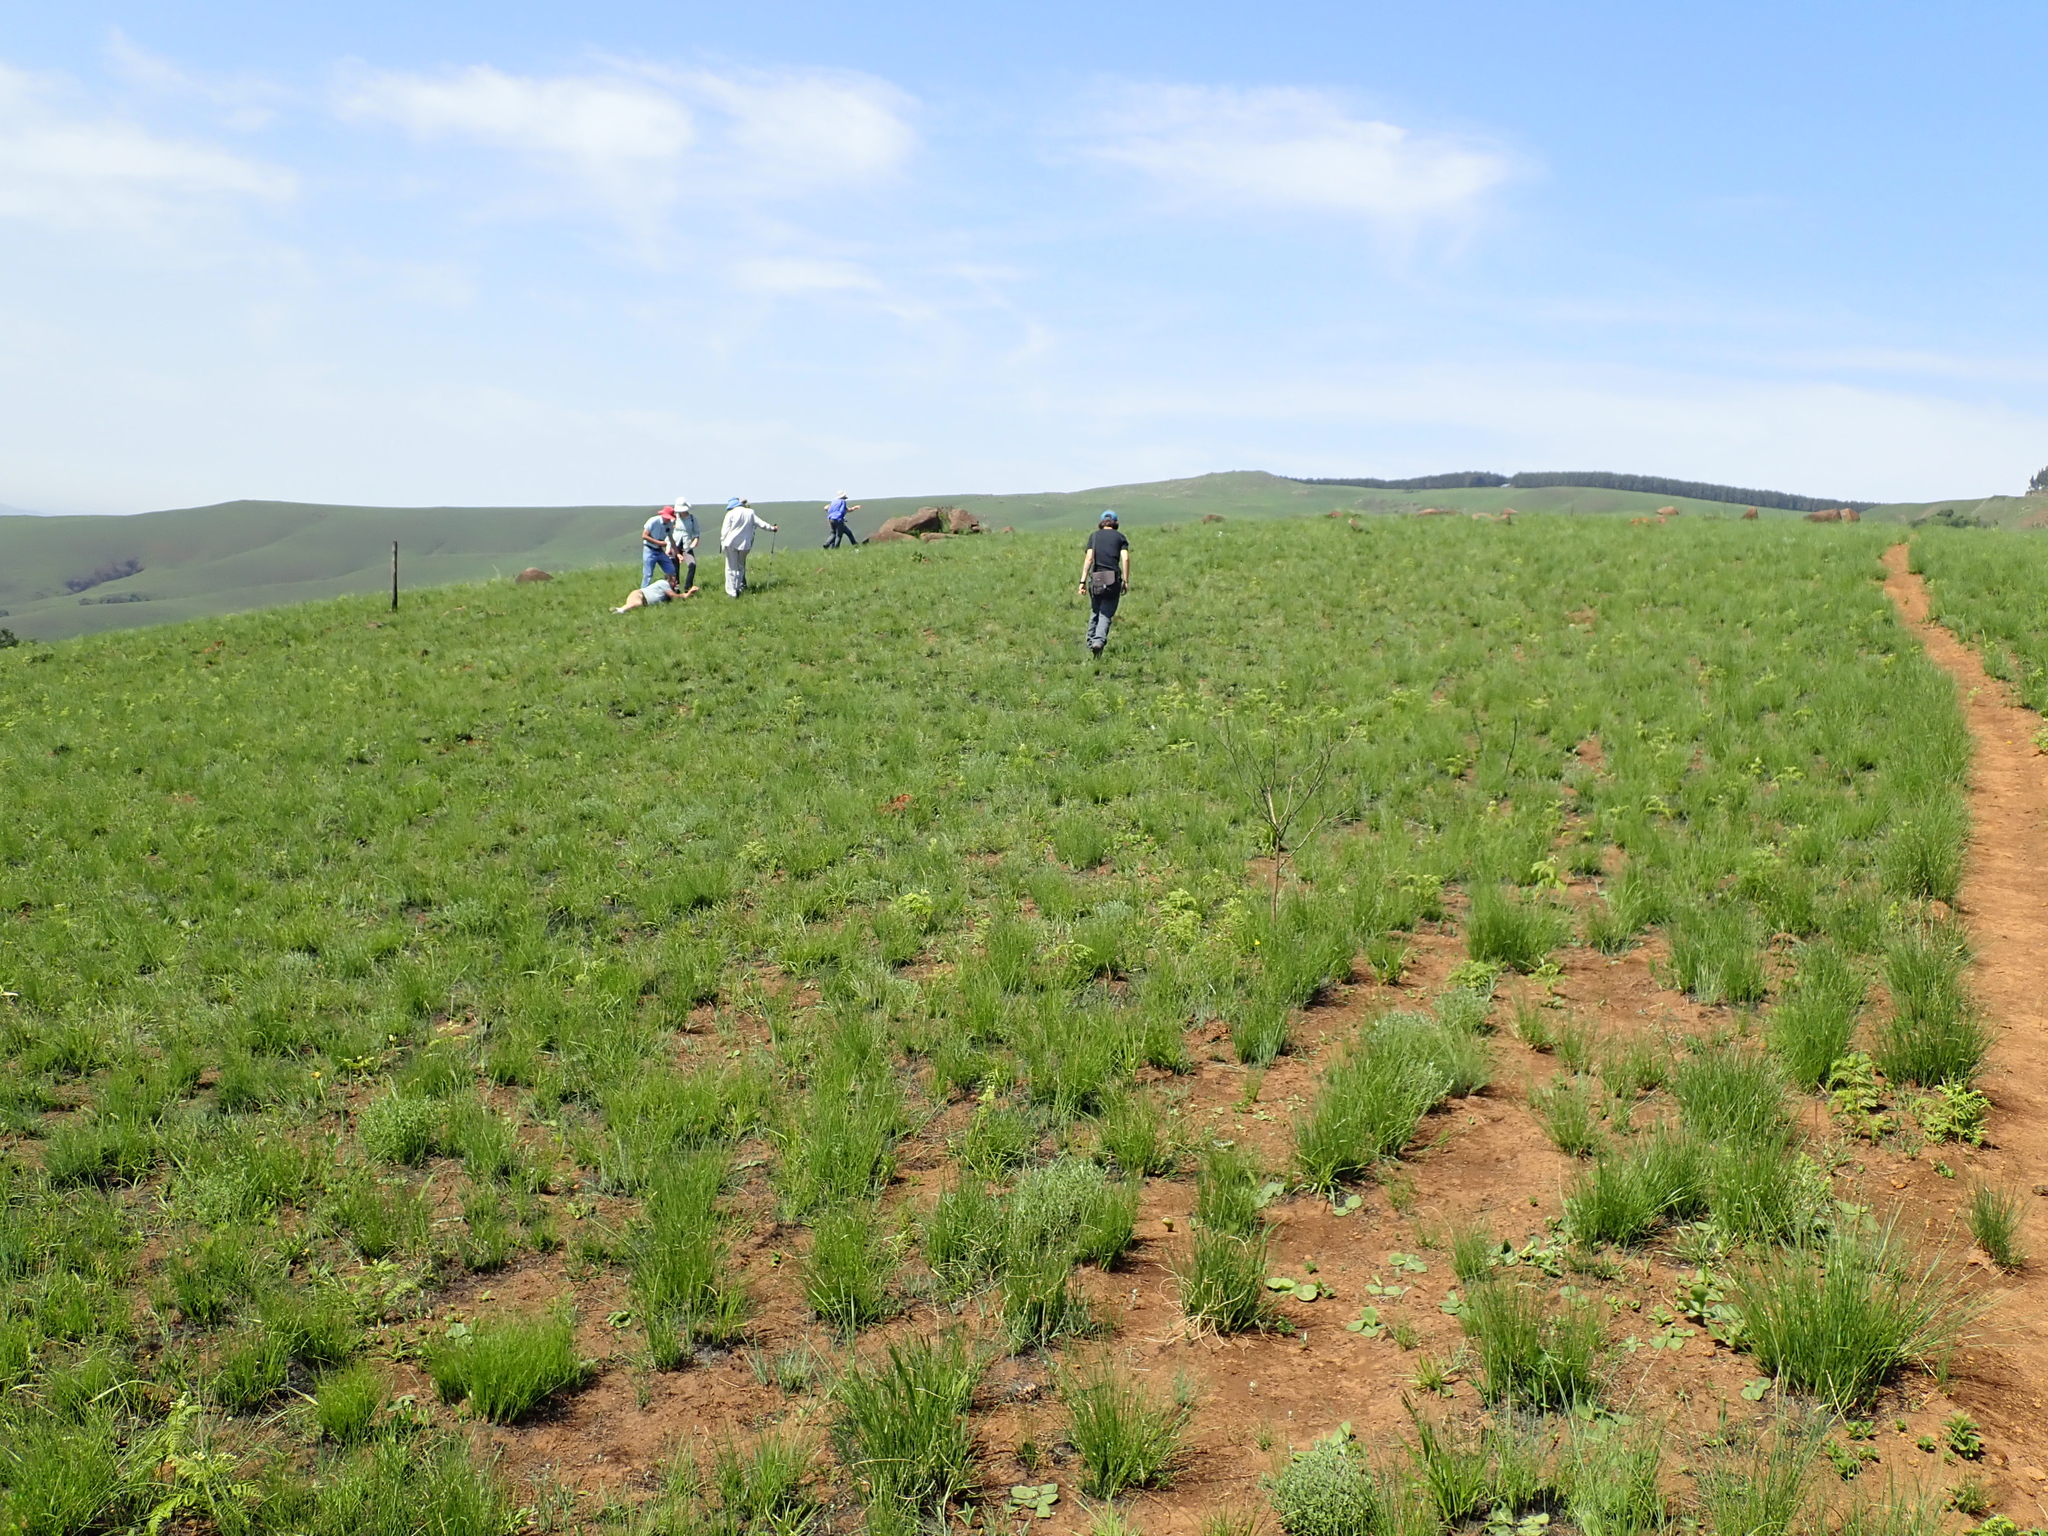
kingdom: Plantae
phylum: Tracheophyta
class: Liliopsida
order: Asparagales
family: Iridaceae
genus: Gladiolus
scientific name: Gladiolus woodii
